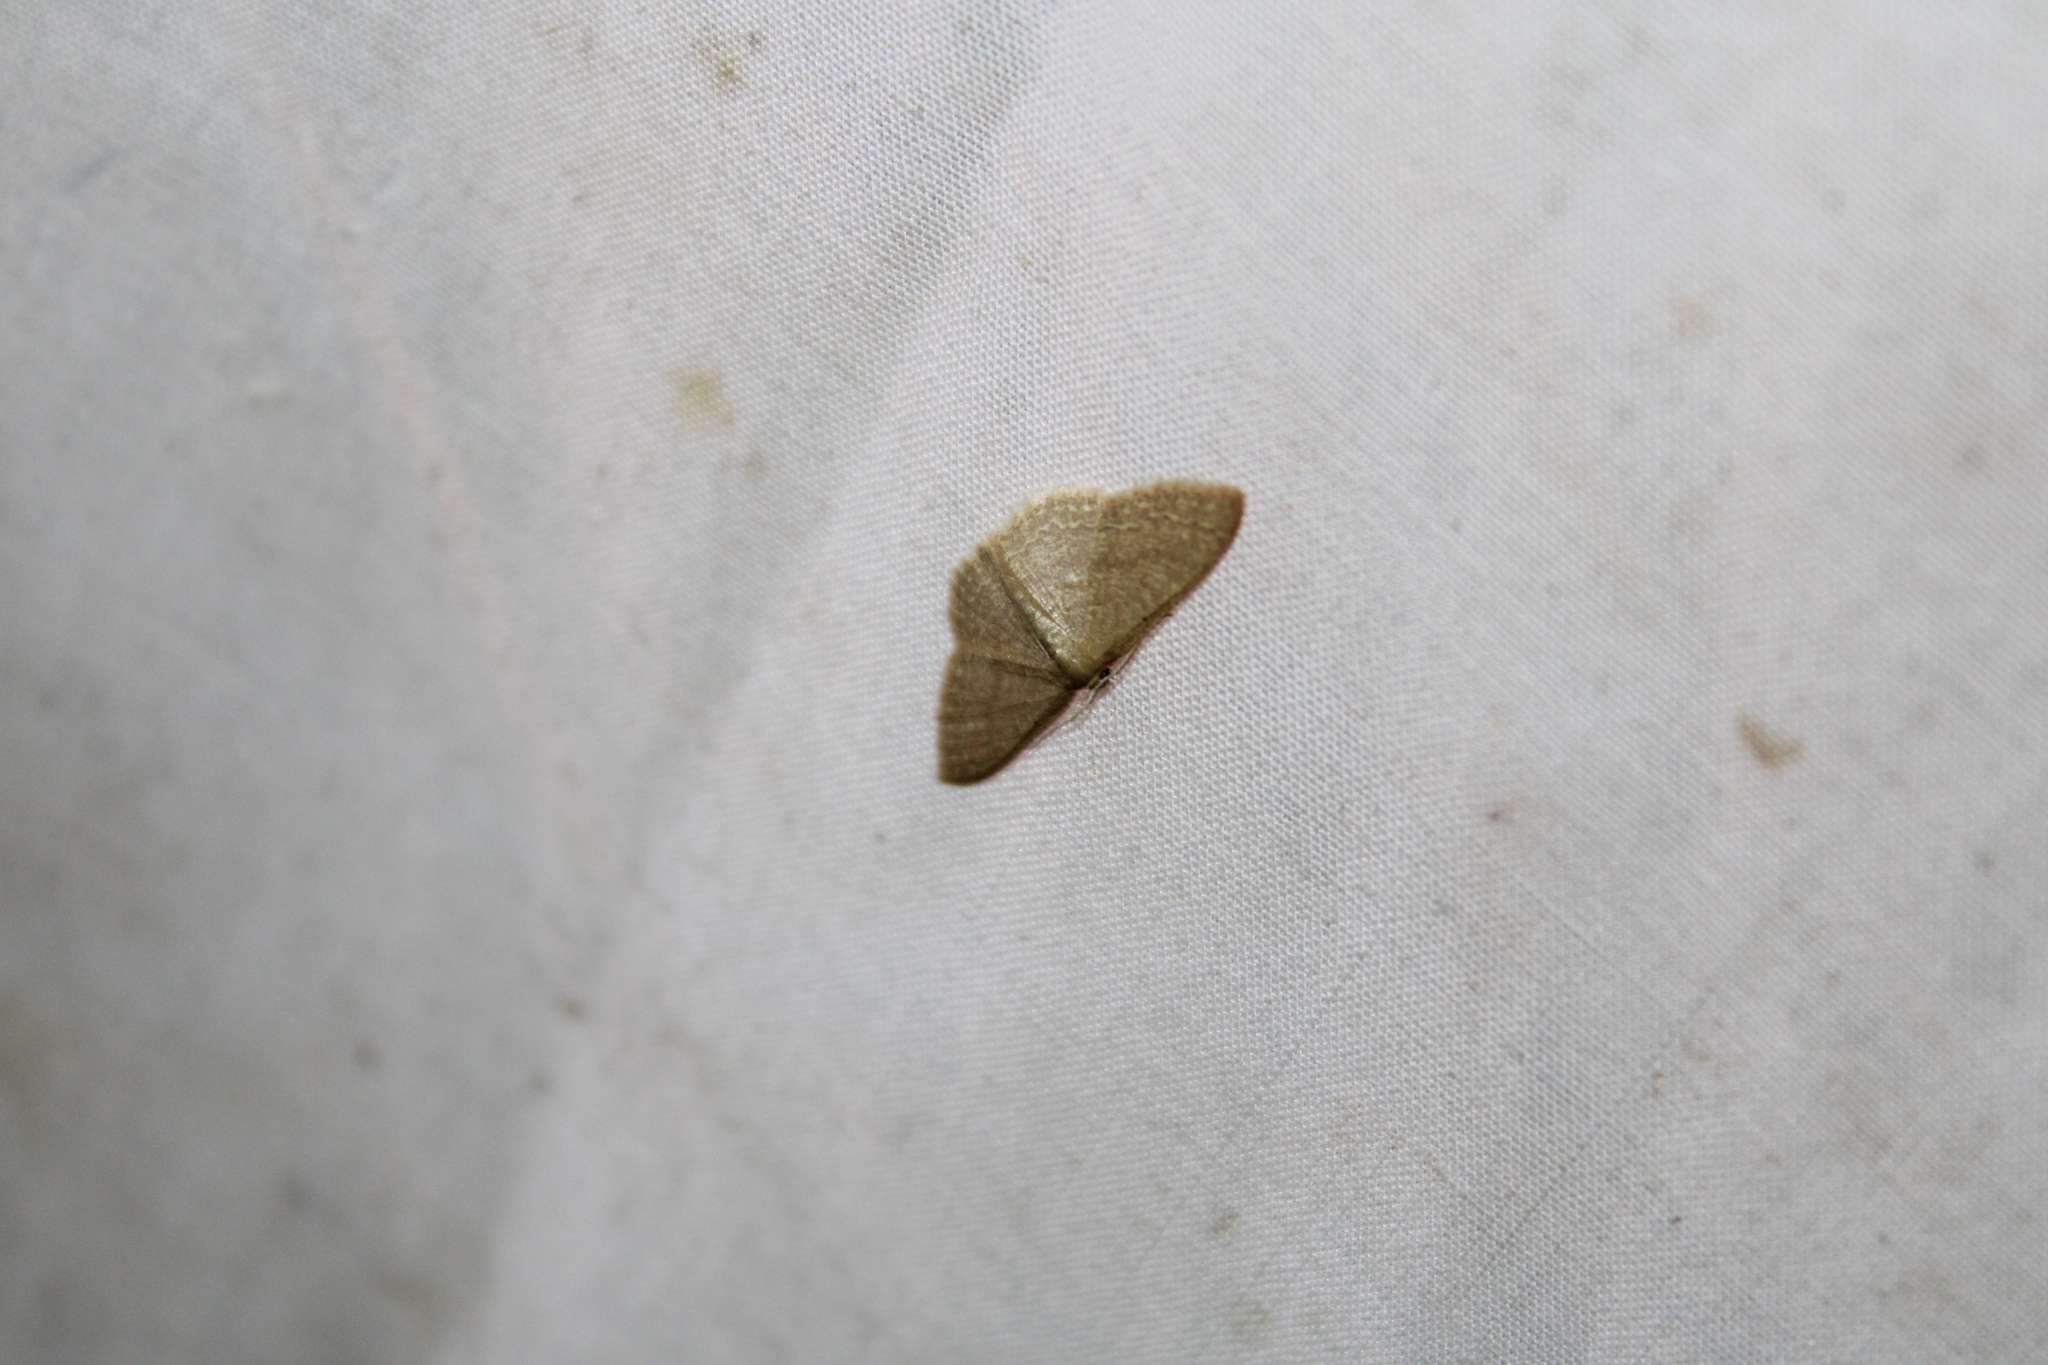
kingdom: Animalia
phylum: Arthropoda
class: Insecta
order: Lepidoptera
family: Geometridae
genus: Pleuroprucha
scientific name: Pleuroprucha insulsaria
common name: Common tan wave
